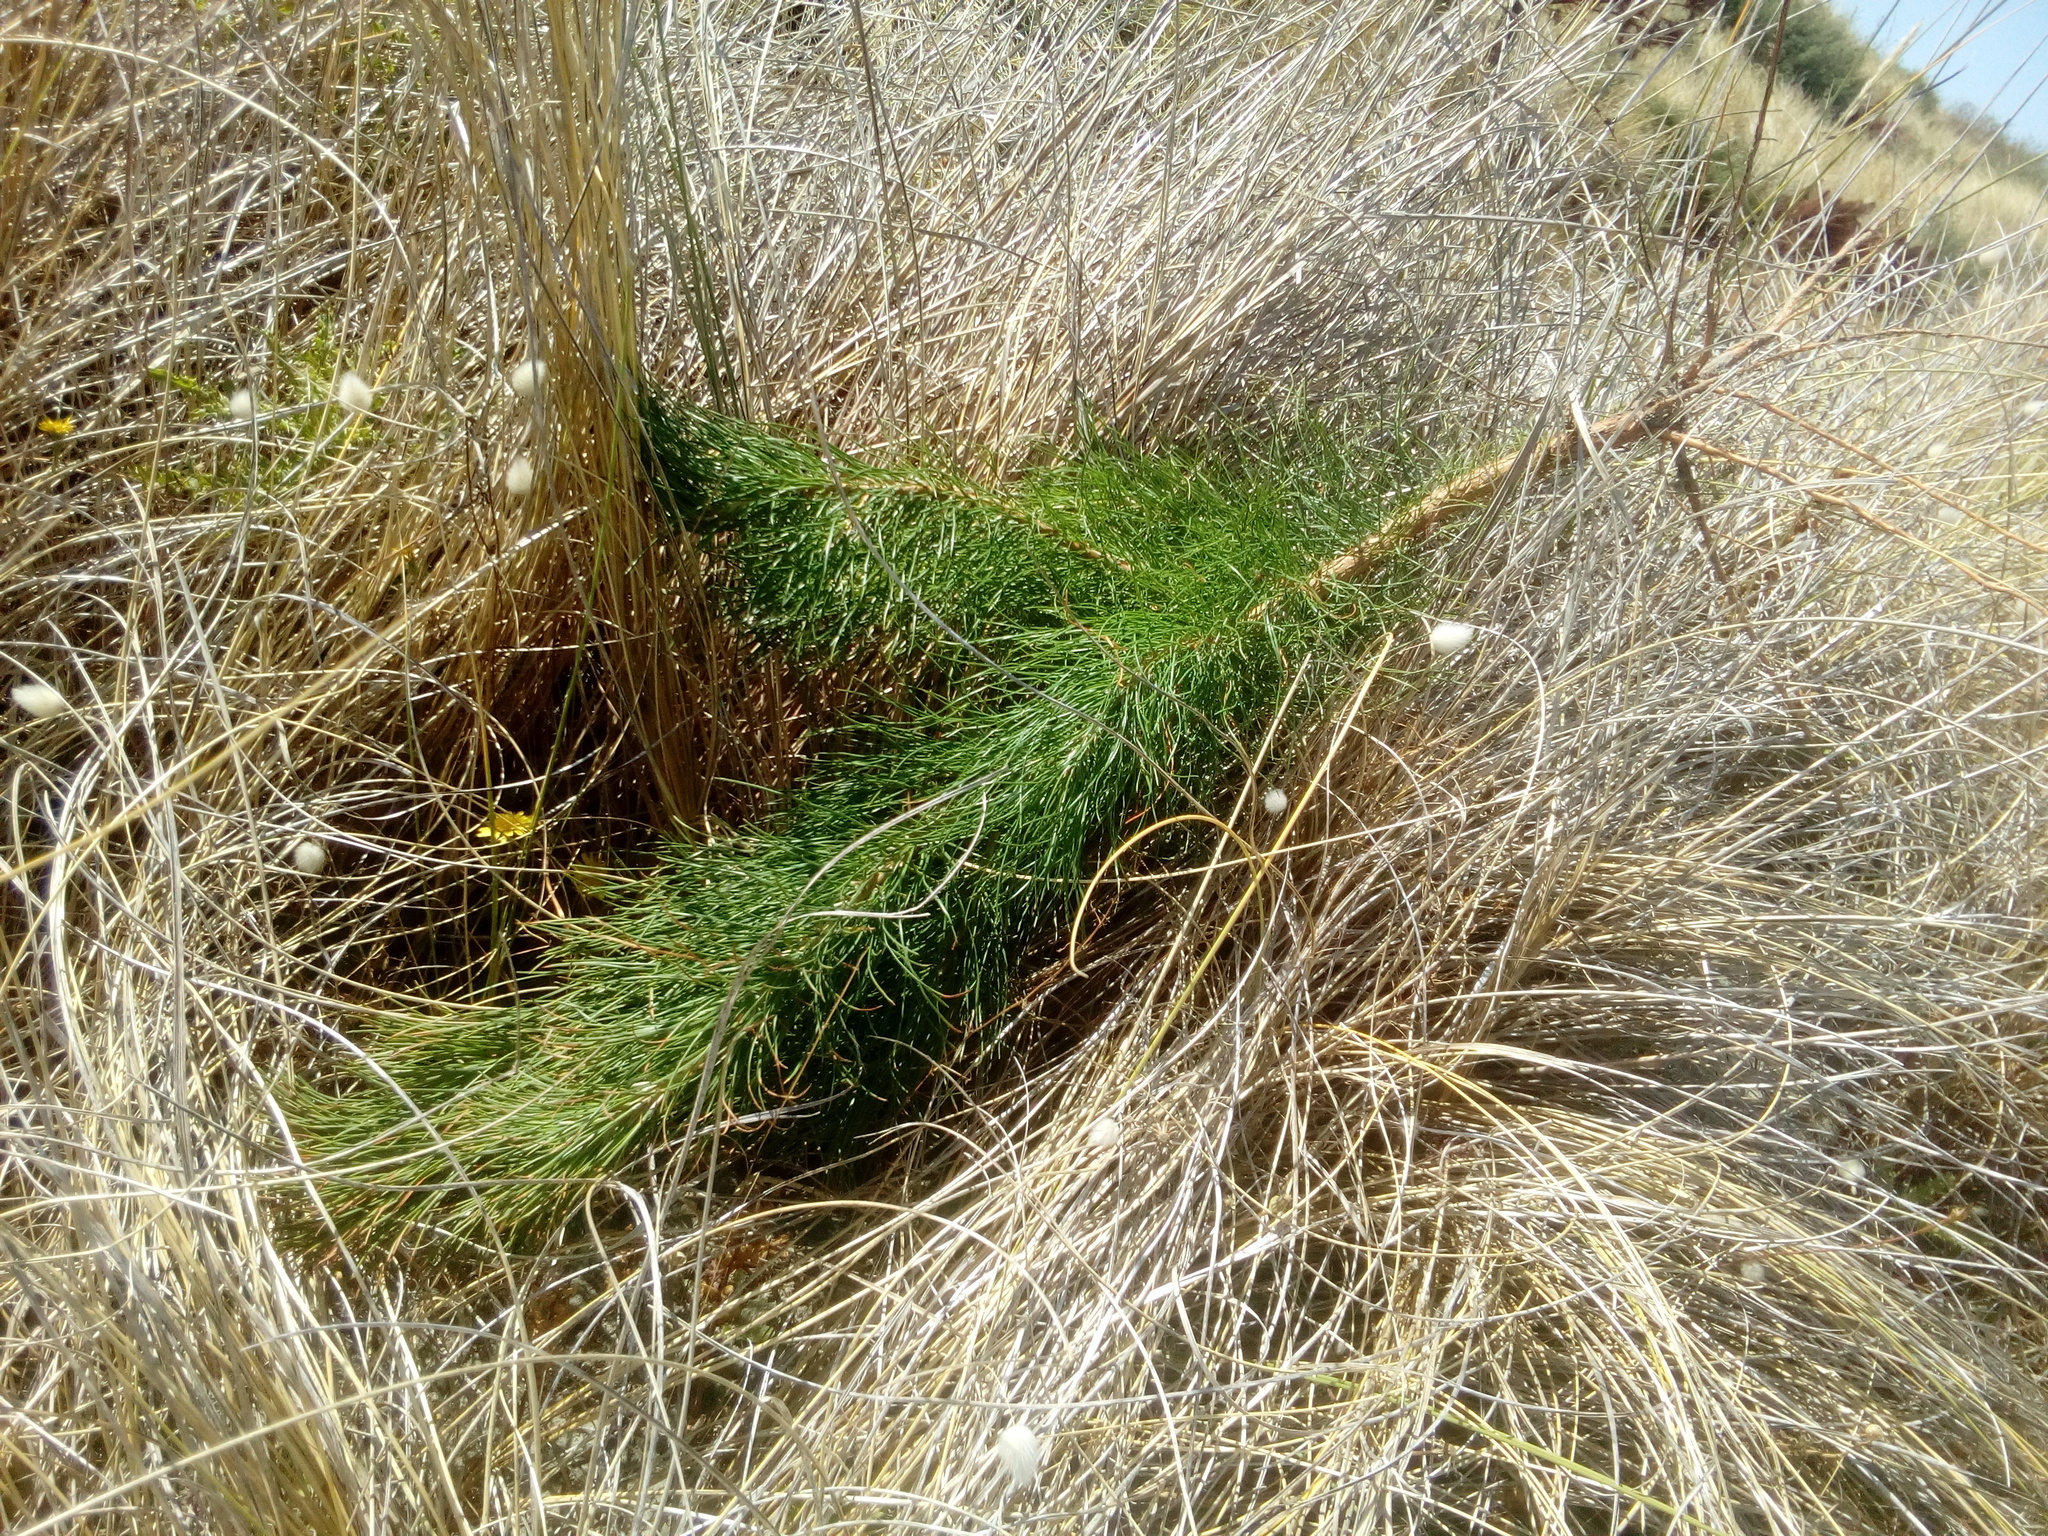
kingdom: Plantae
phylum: Tracheophyta
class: Pinopsida
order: Pinales
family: Pinaceae
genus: Pinus
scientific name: Pinus radiata
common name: Monterey pine
